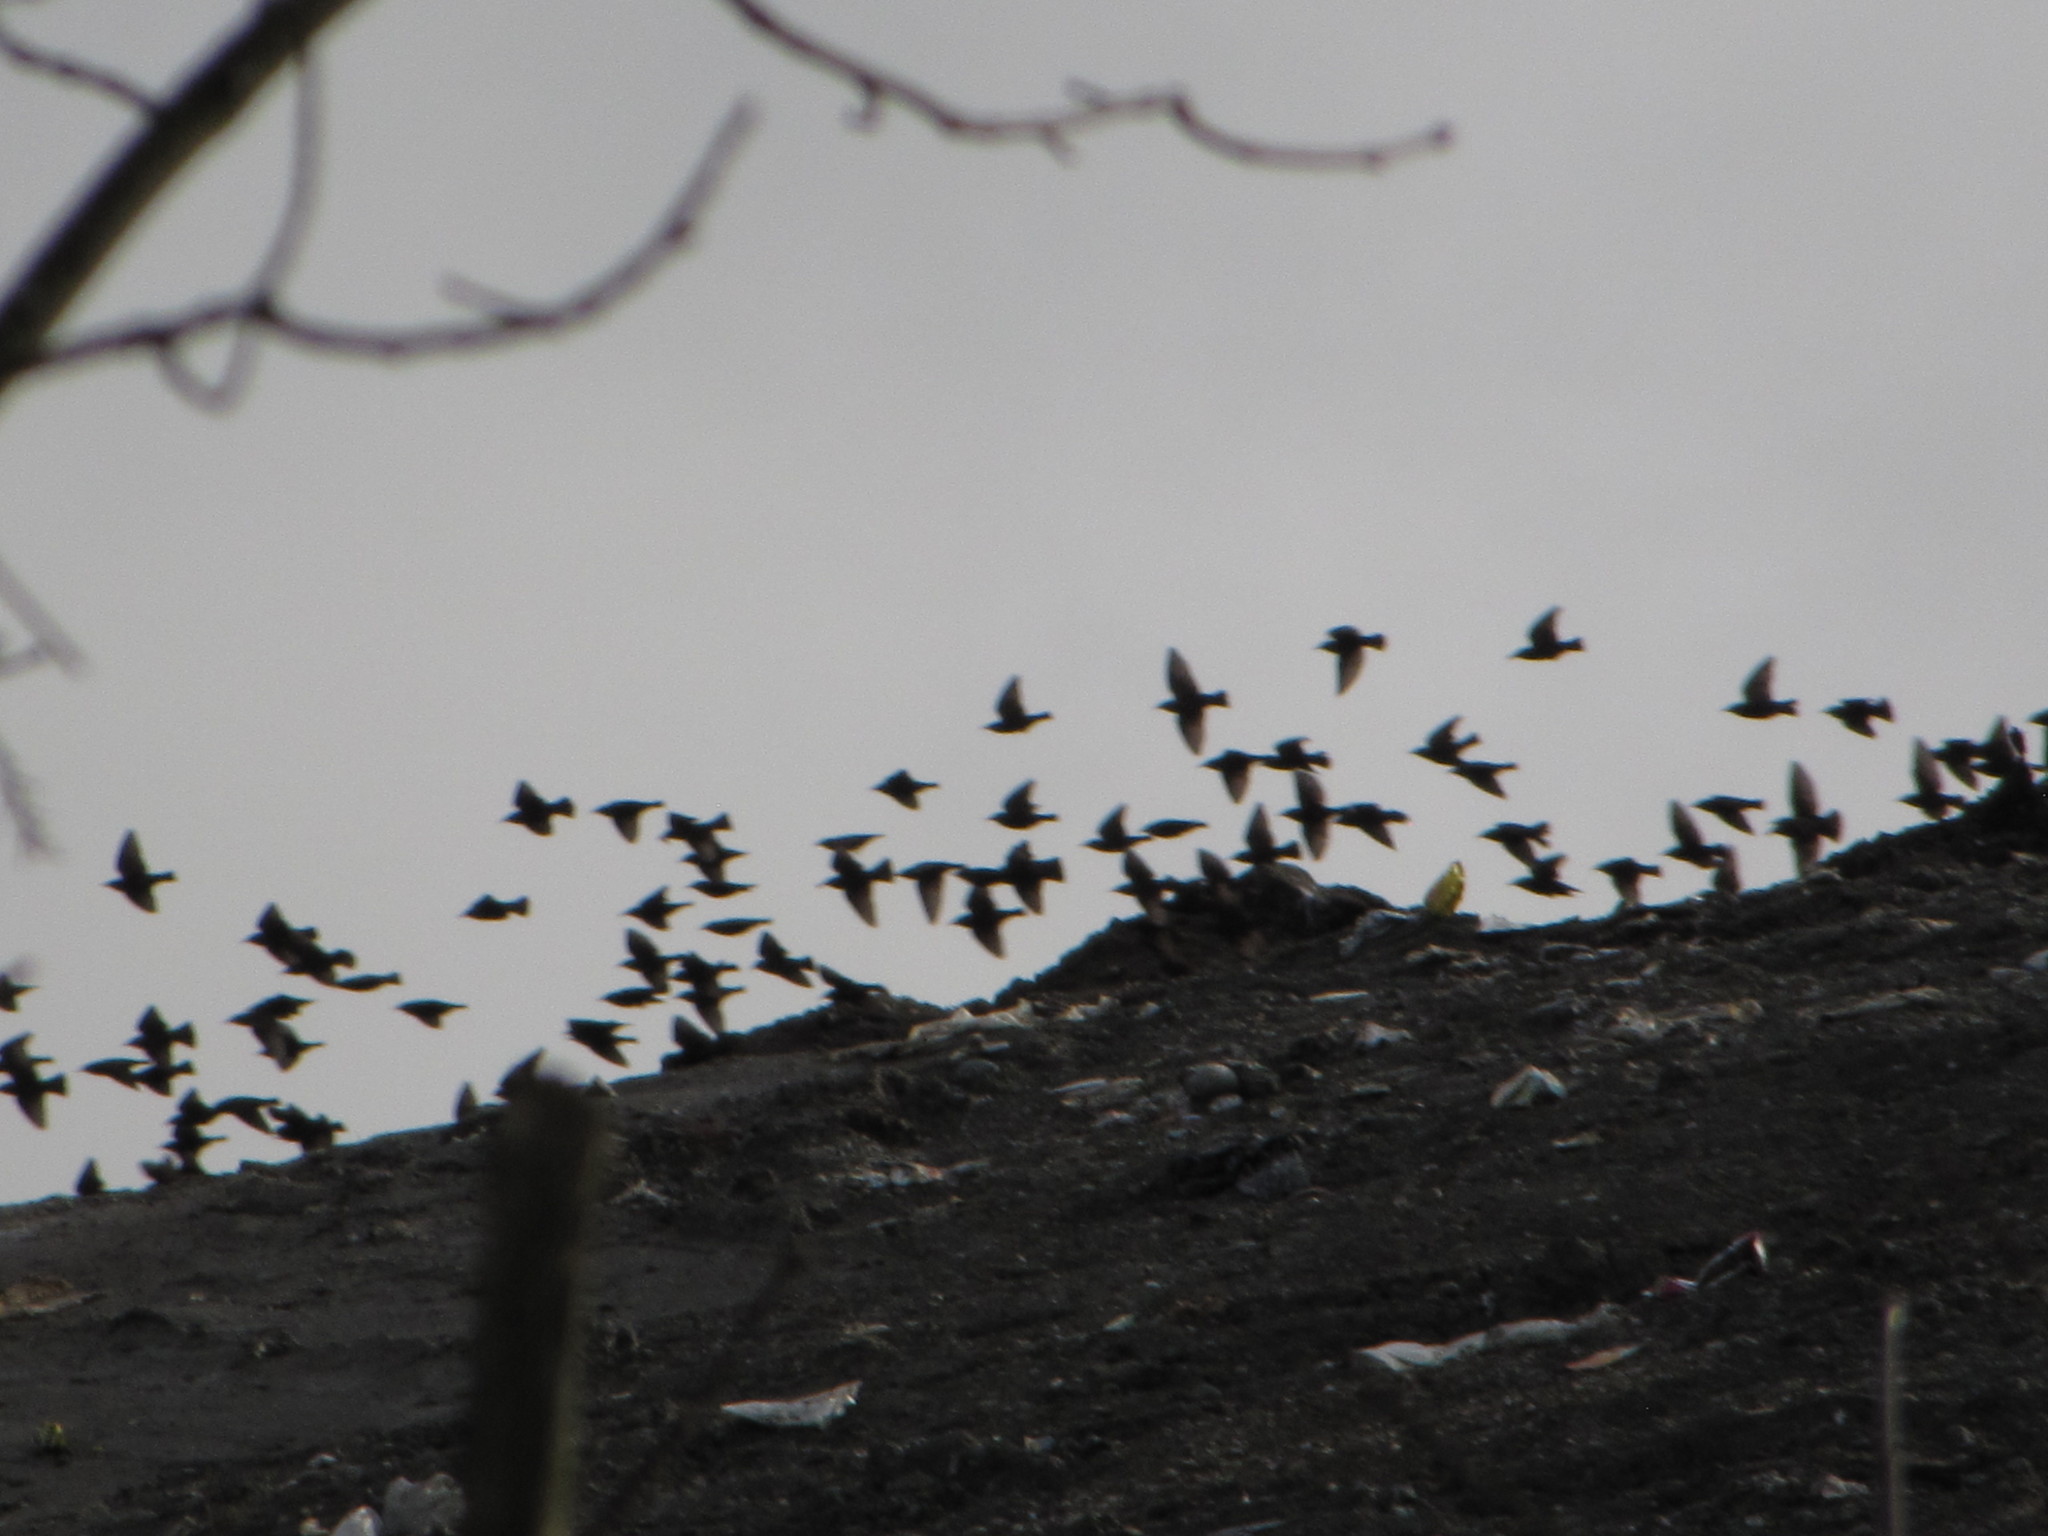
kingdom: Animalia
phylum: Chordata
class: Aves
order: Passeriformes
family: Sturnidae
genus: Sturnus
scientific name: Sturnus vulgaris
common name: Common starling
